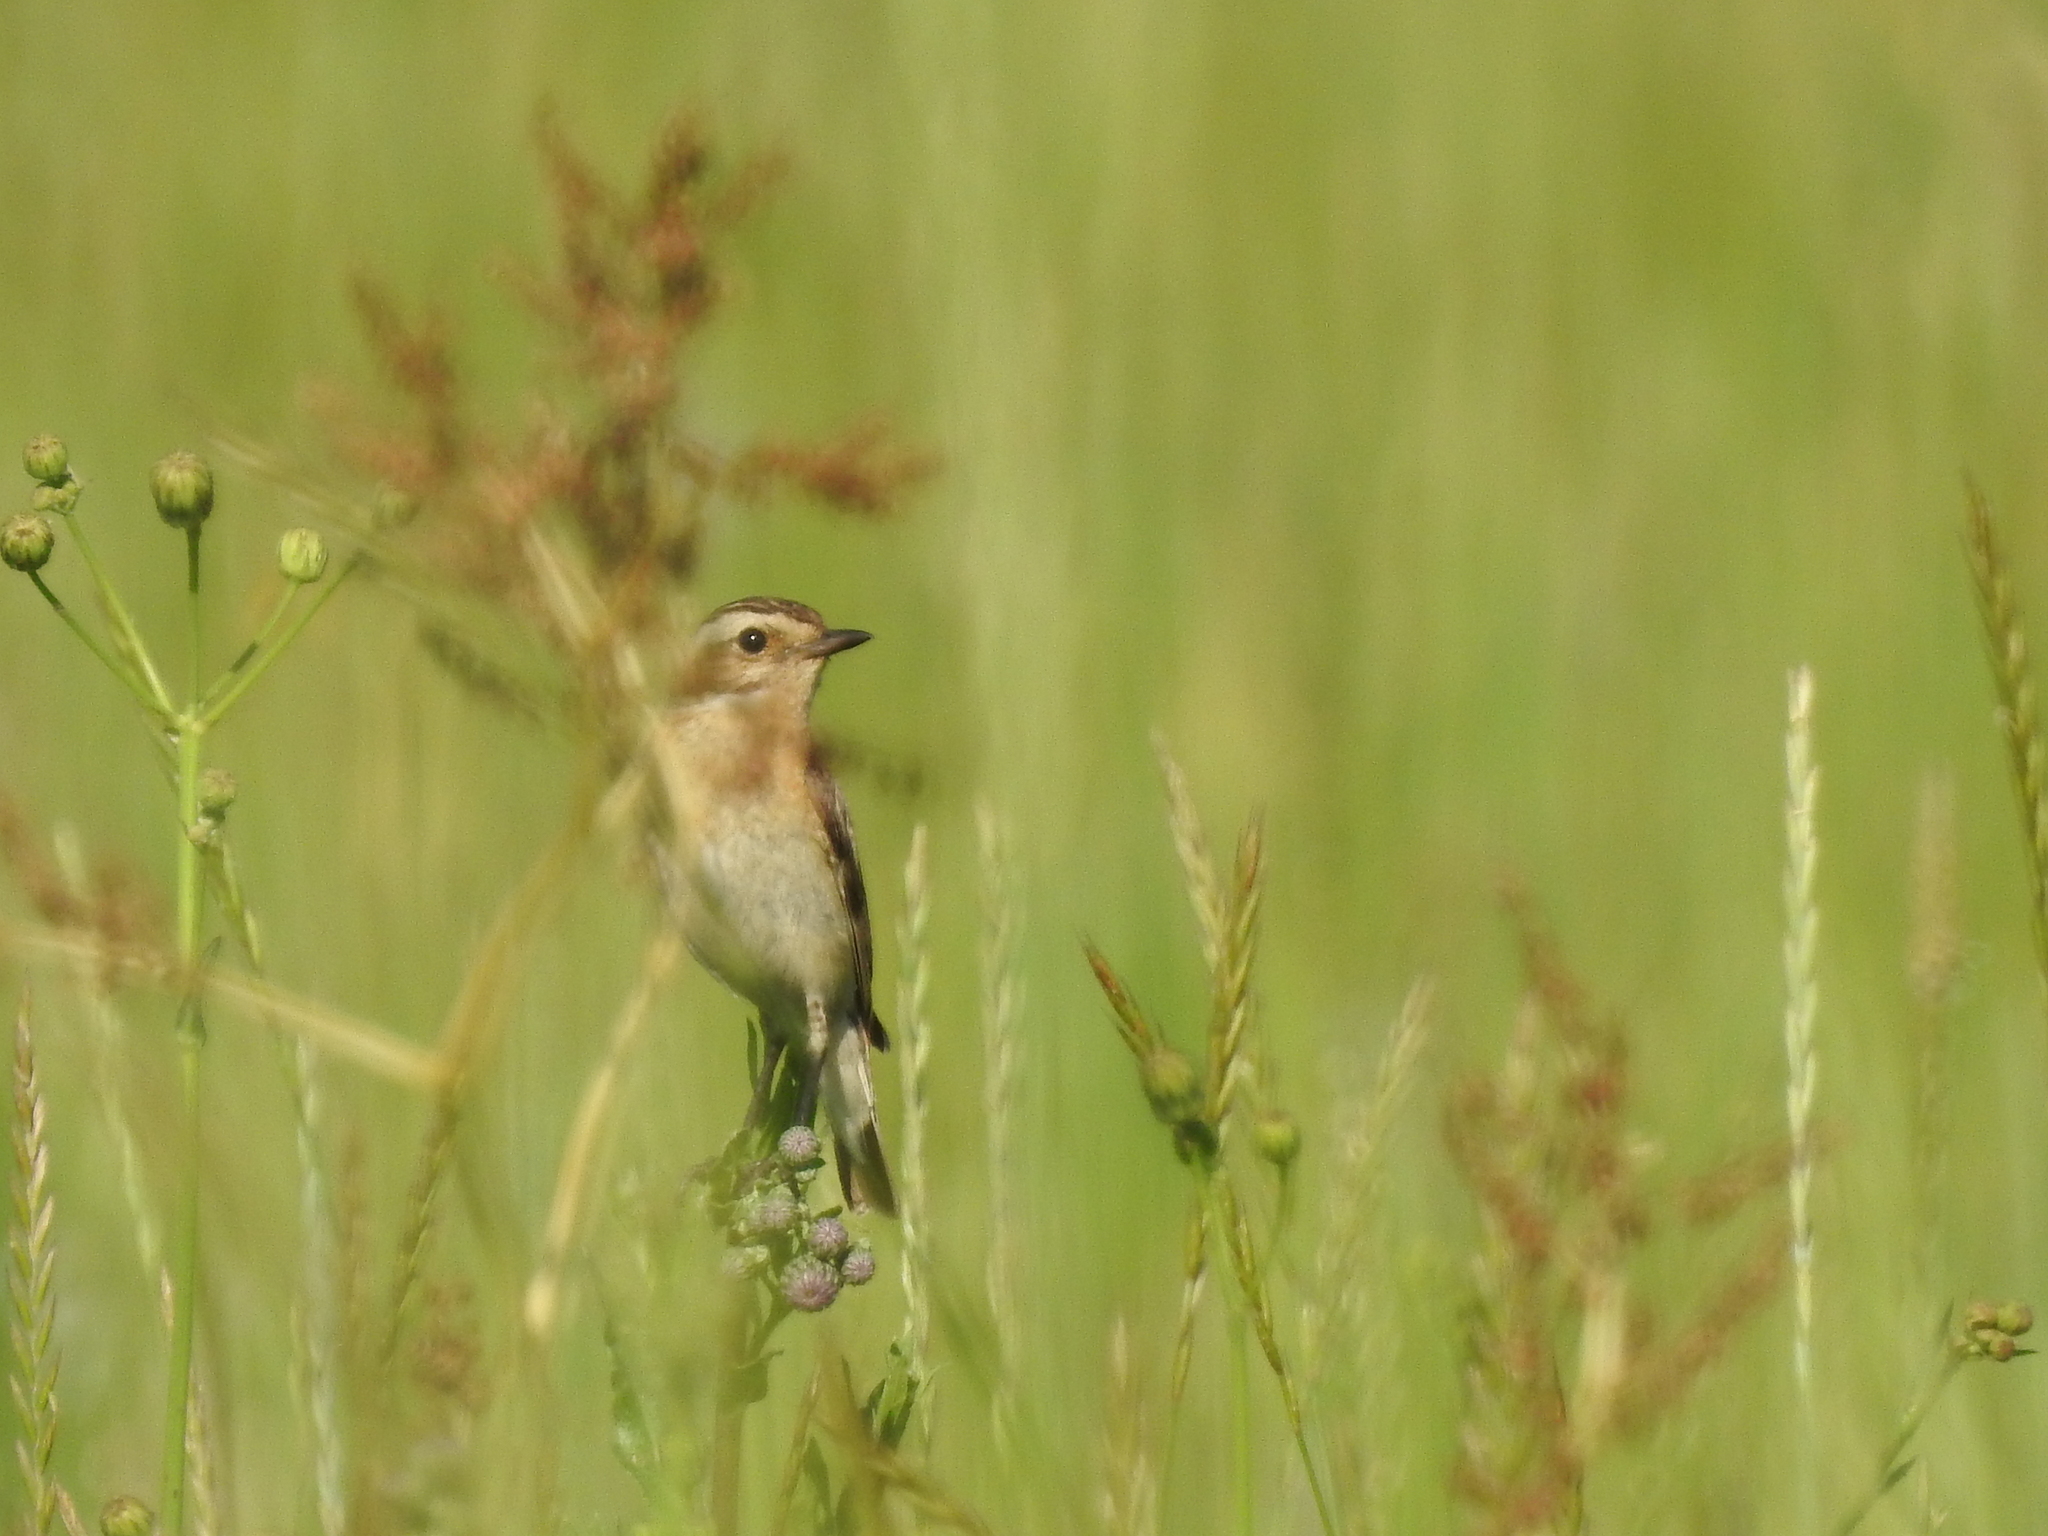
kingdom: Animalia
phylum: Chordata
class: Aves
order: Passeriformes
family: Muscicapidae
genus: Saxicola
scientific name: Saxicola rubetra
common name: Whinchat
